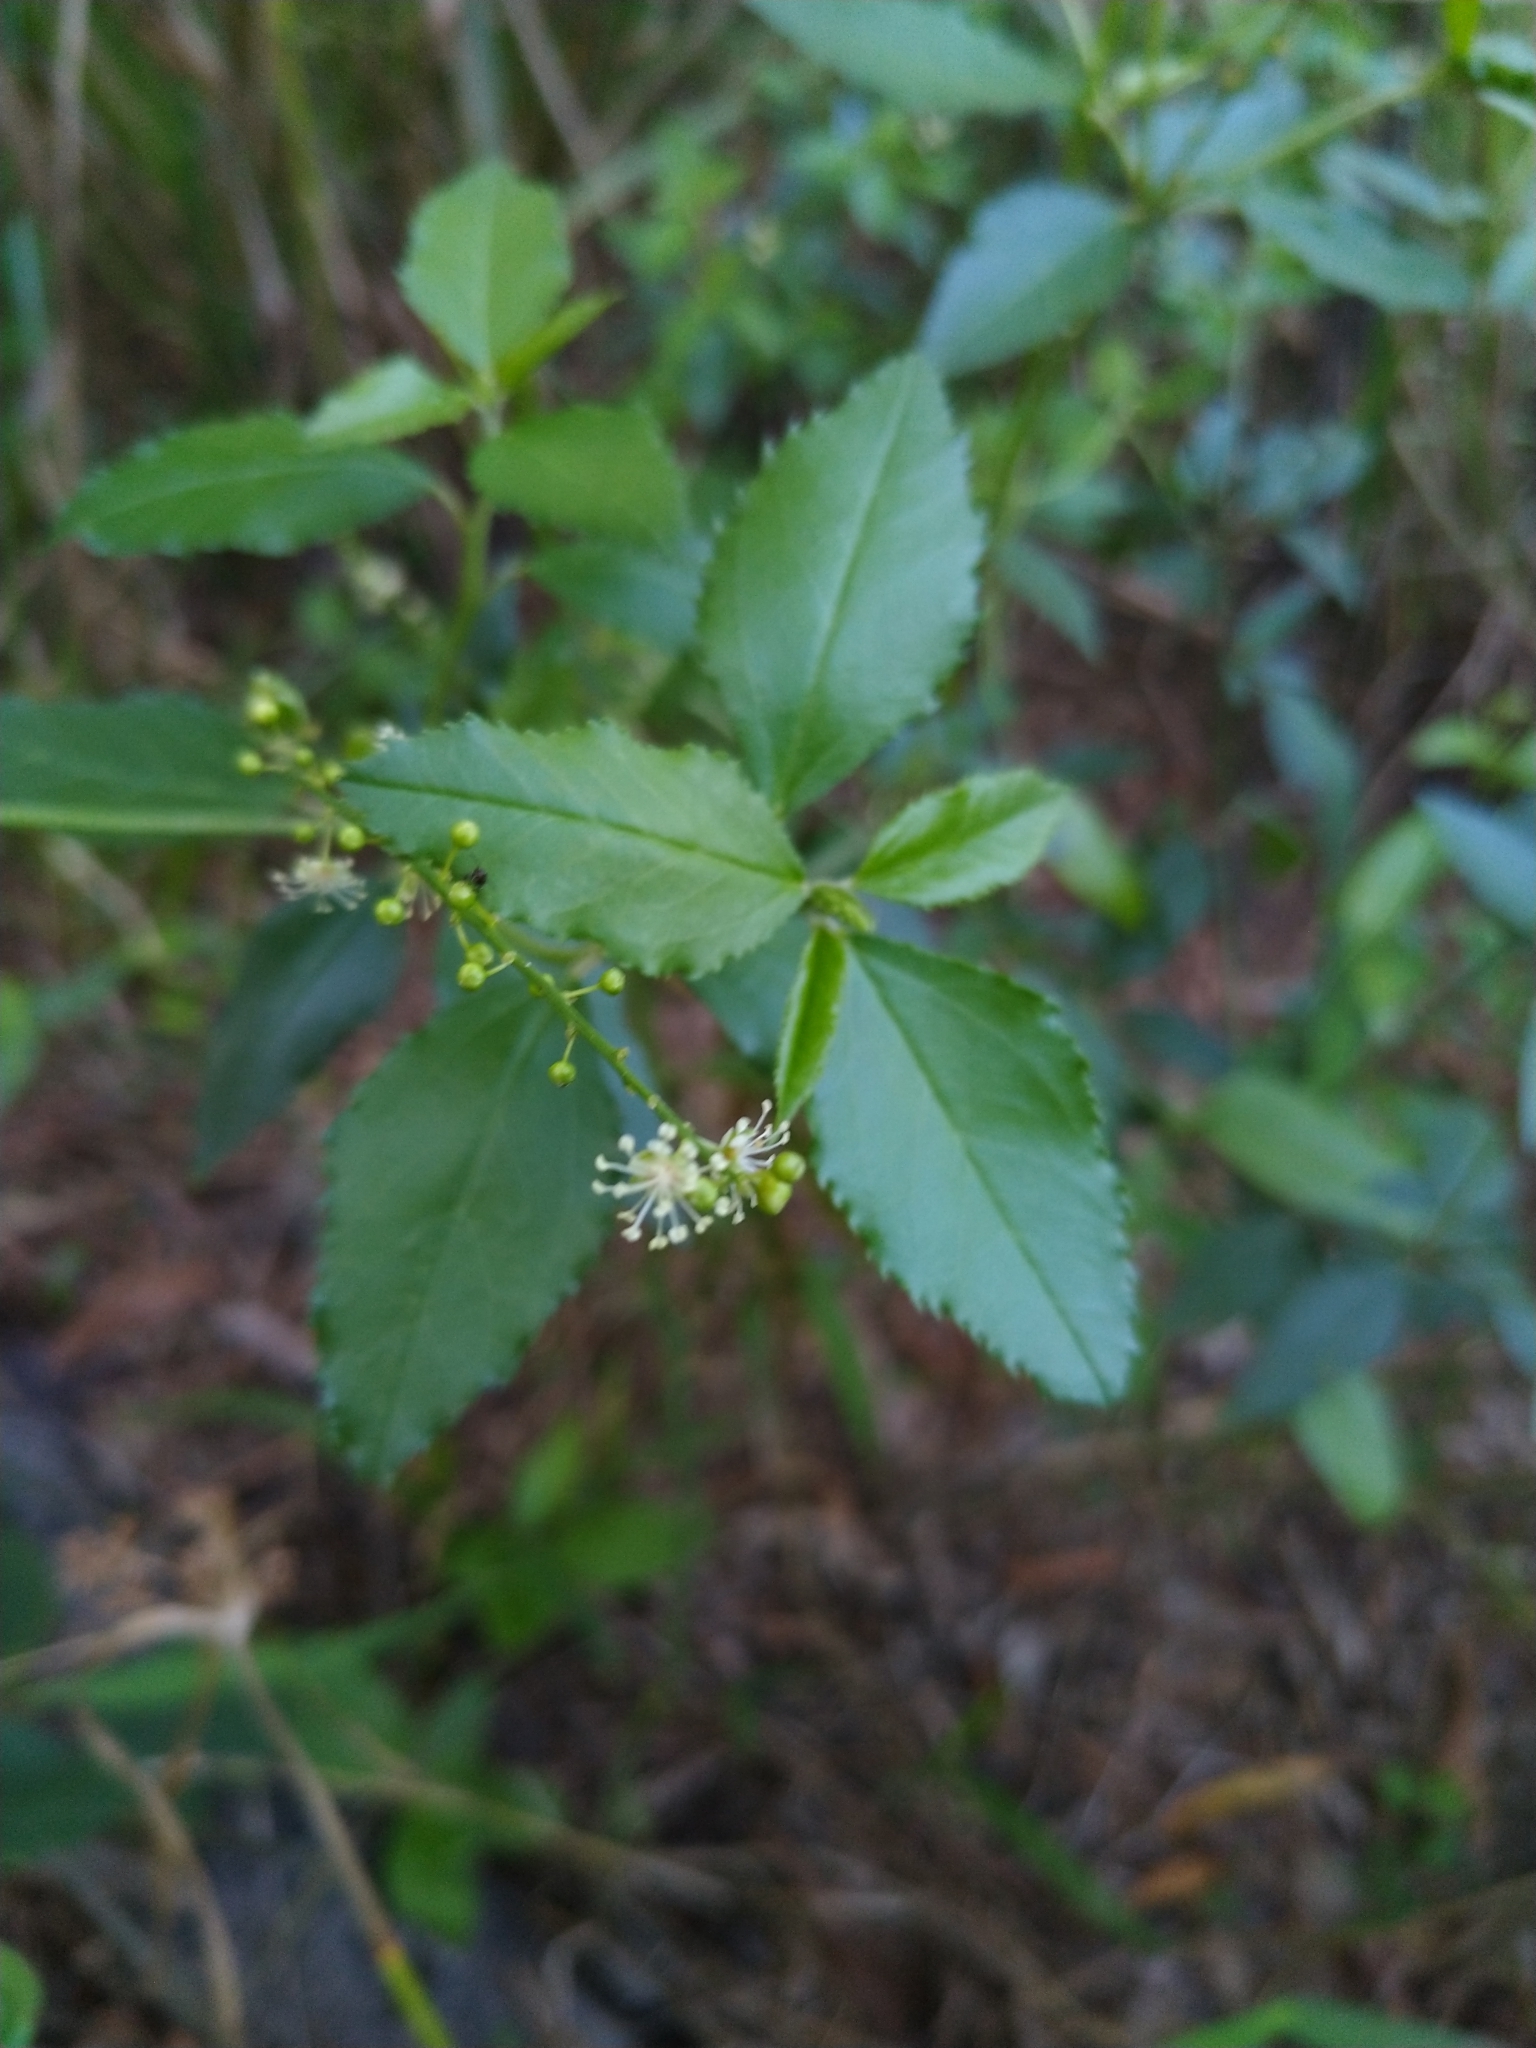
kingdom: Plantae
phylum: Tracheophyta
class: Magnoliopsida
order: Malpighiales
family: Euphorbiaceae
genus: Croton
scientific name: Croton bonplandianus
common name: Bonpland's croton
